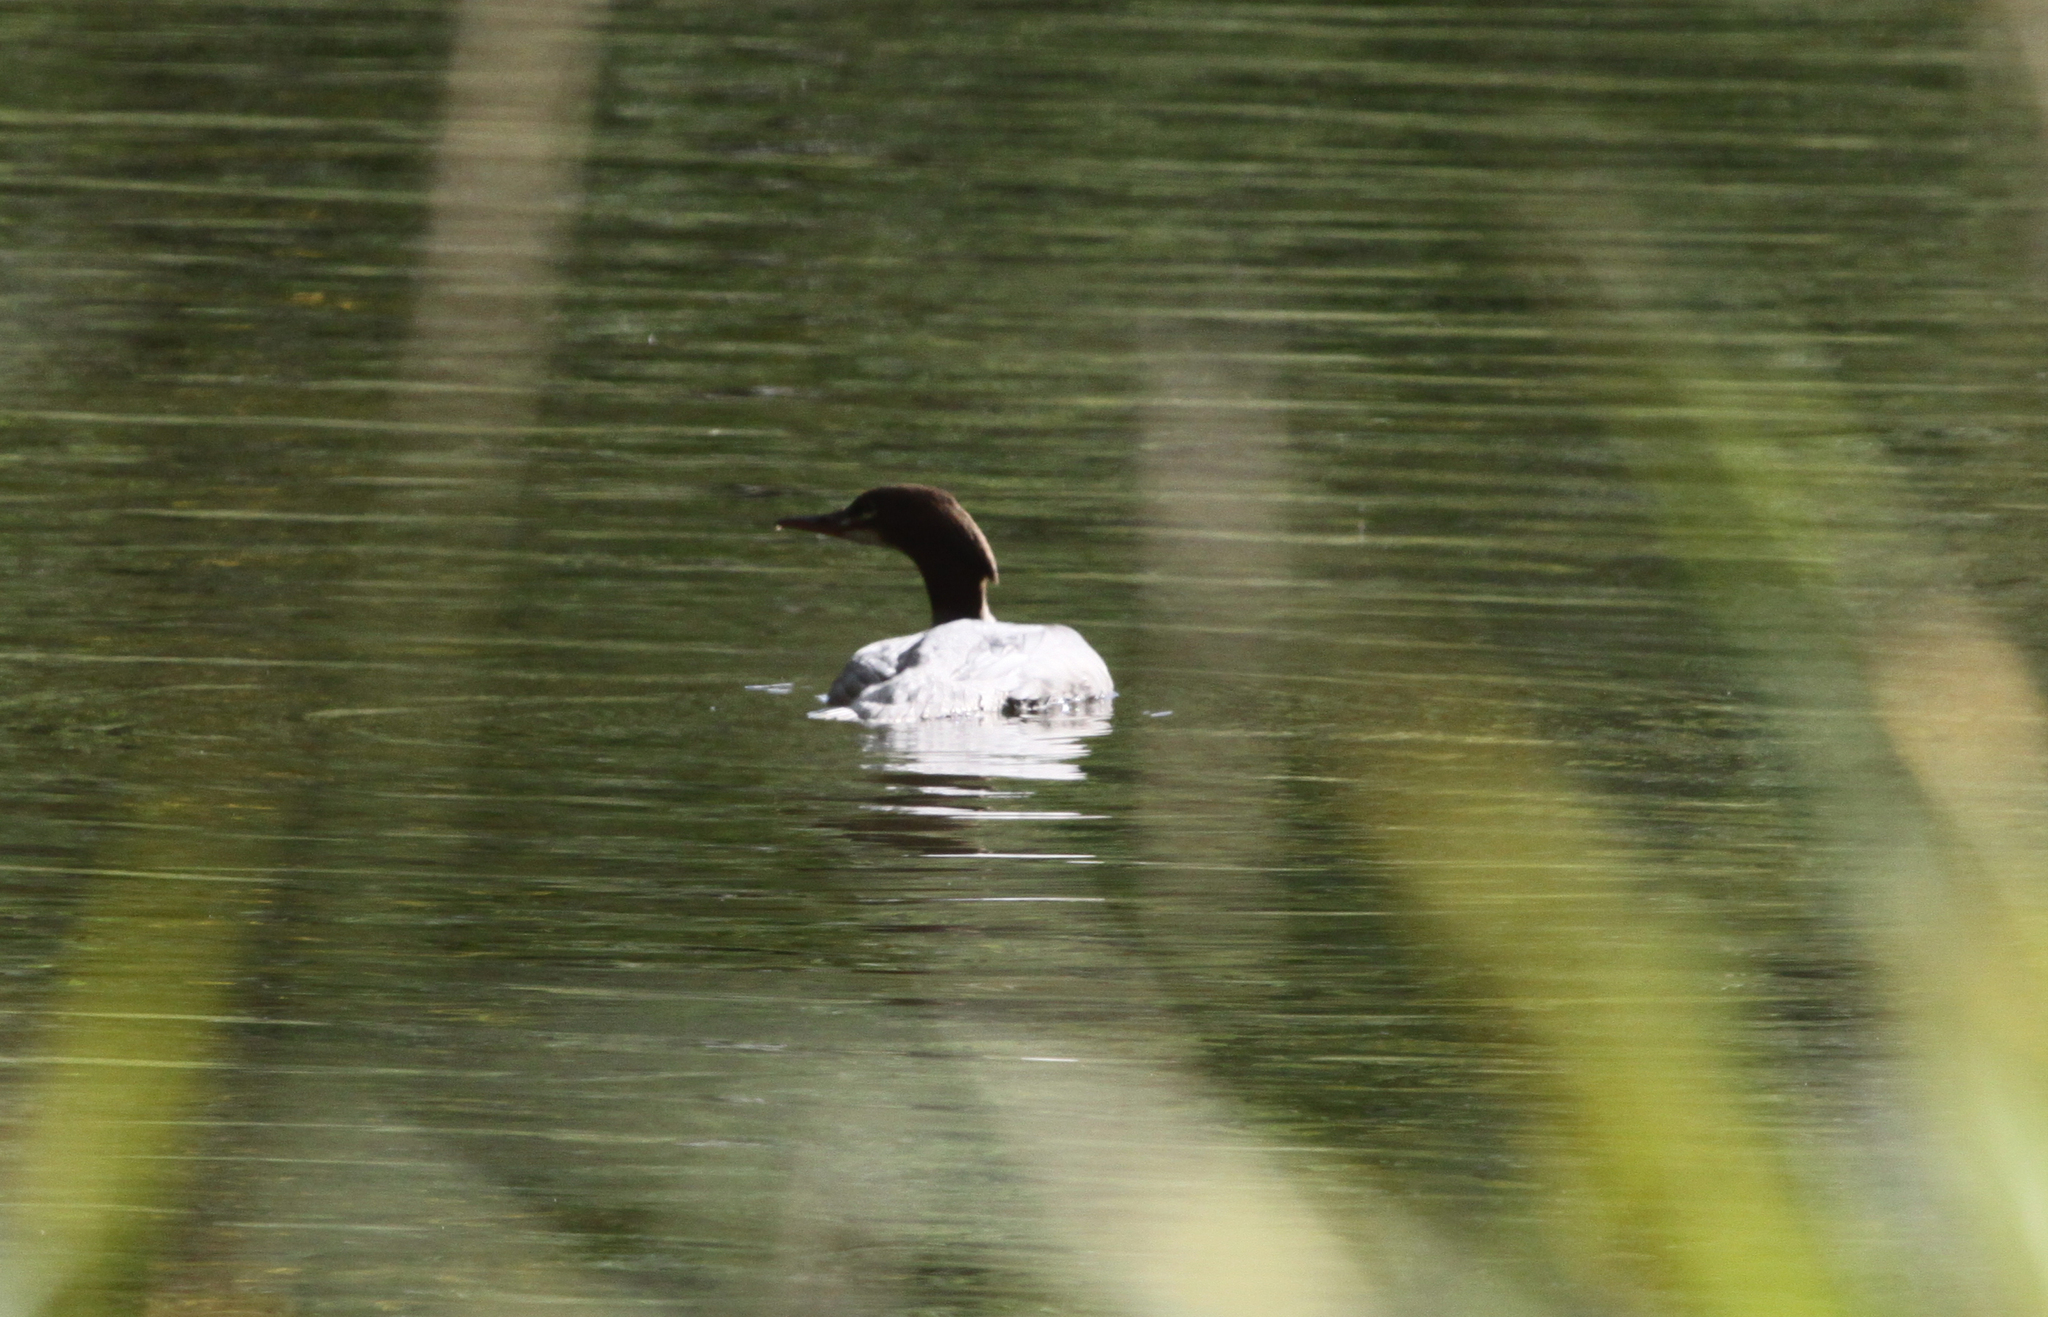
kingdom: Animalia
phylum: Chordata
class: Aves
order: Anseriformes
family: Anatidae
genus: Mergus
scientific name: Mergus merganser
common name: Common merganser
